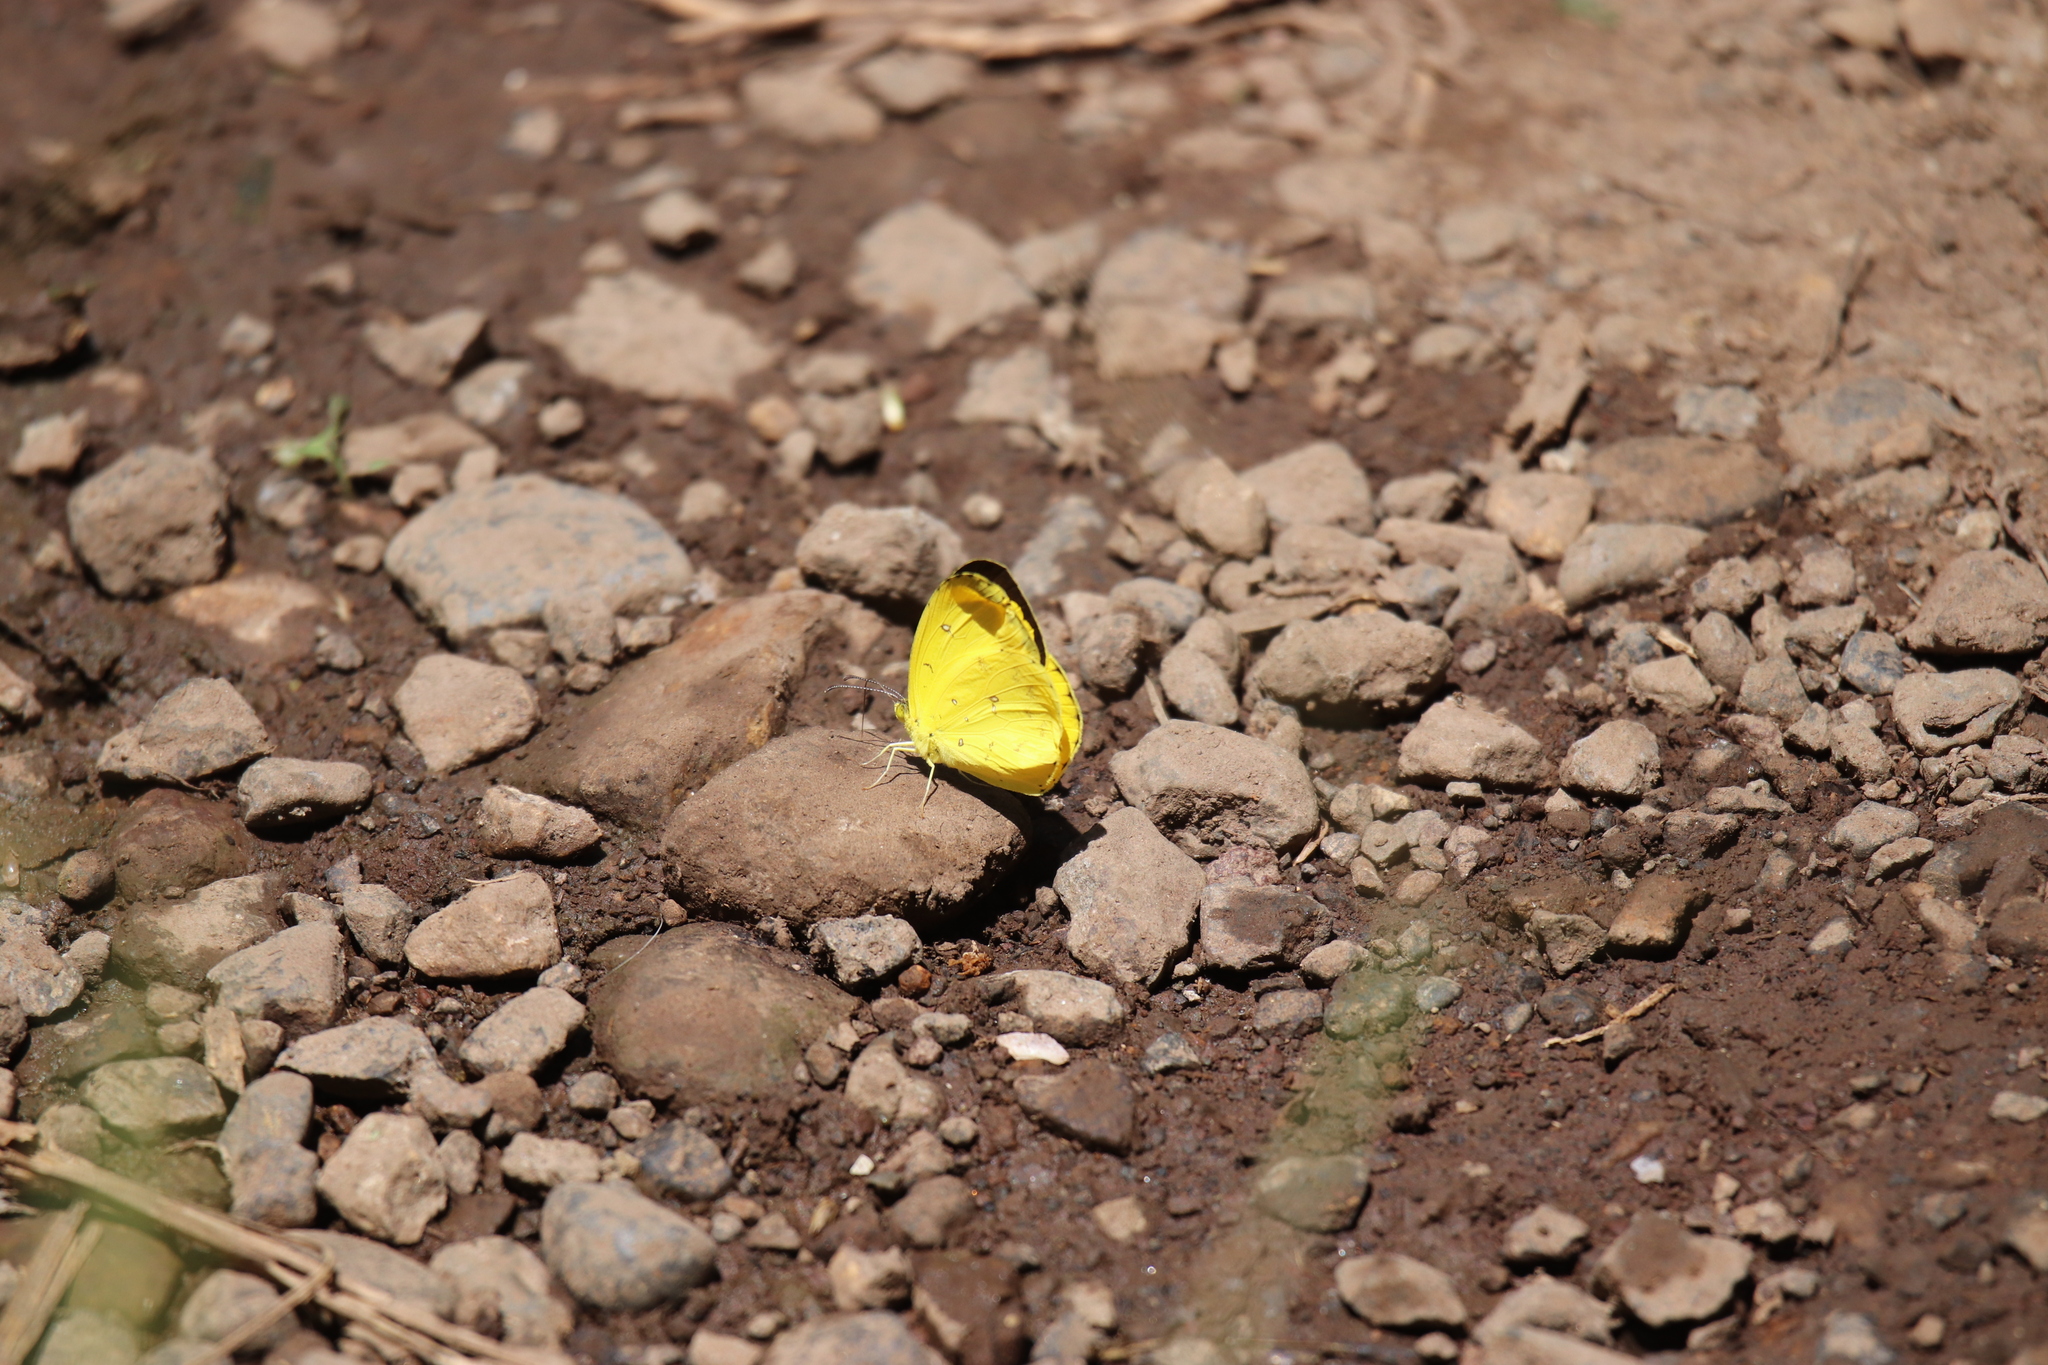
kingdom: Animalia
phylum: Arthropoda
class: Insecta
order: Lepidoptera
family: Pieridae
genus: Eurema
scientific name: Eurema floricola
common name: Malagasy grass yellow
